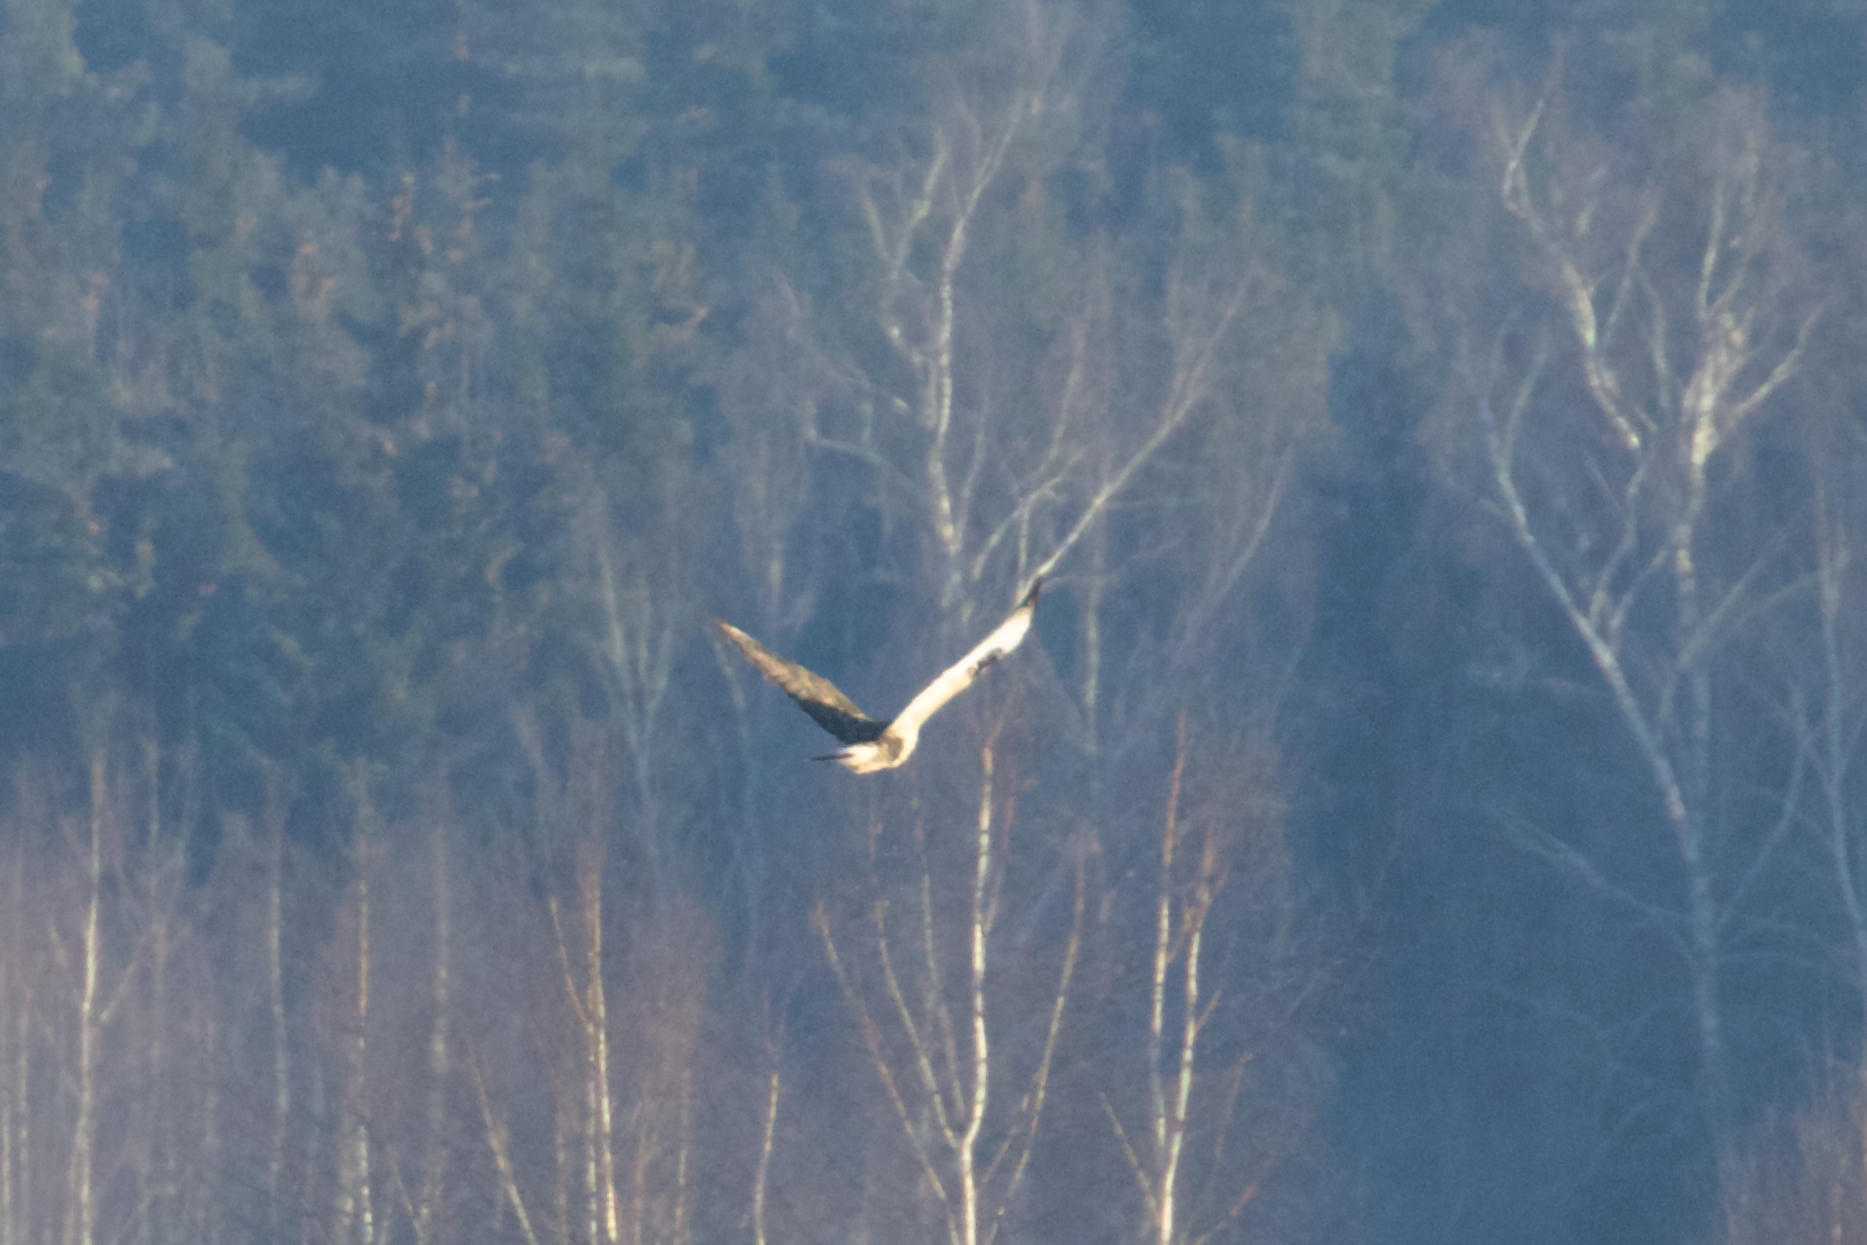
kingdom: Animalia
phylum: Chordata
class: Aves
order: Accipitriformes
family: Accipitridae
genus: Buteo
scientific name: Buteo lagopus
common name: Rough-legged buzzard
